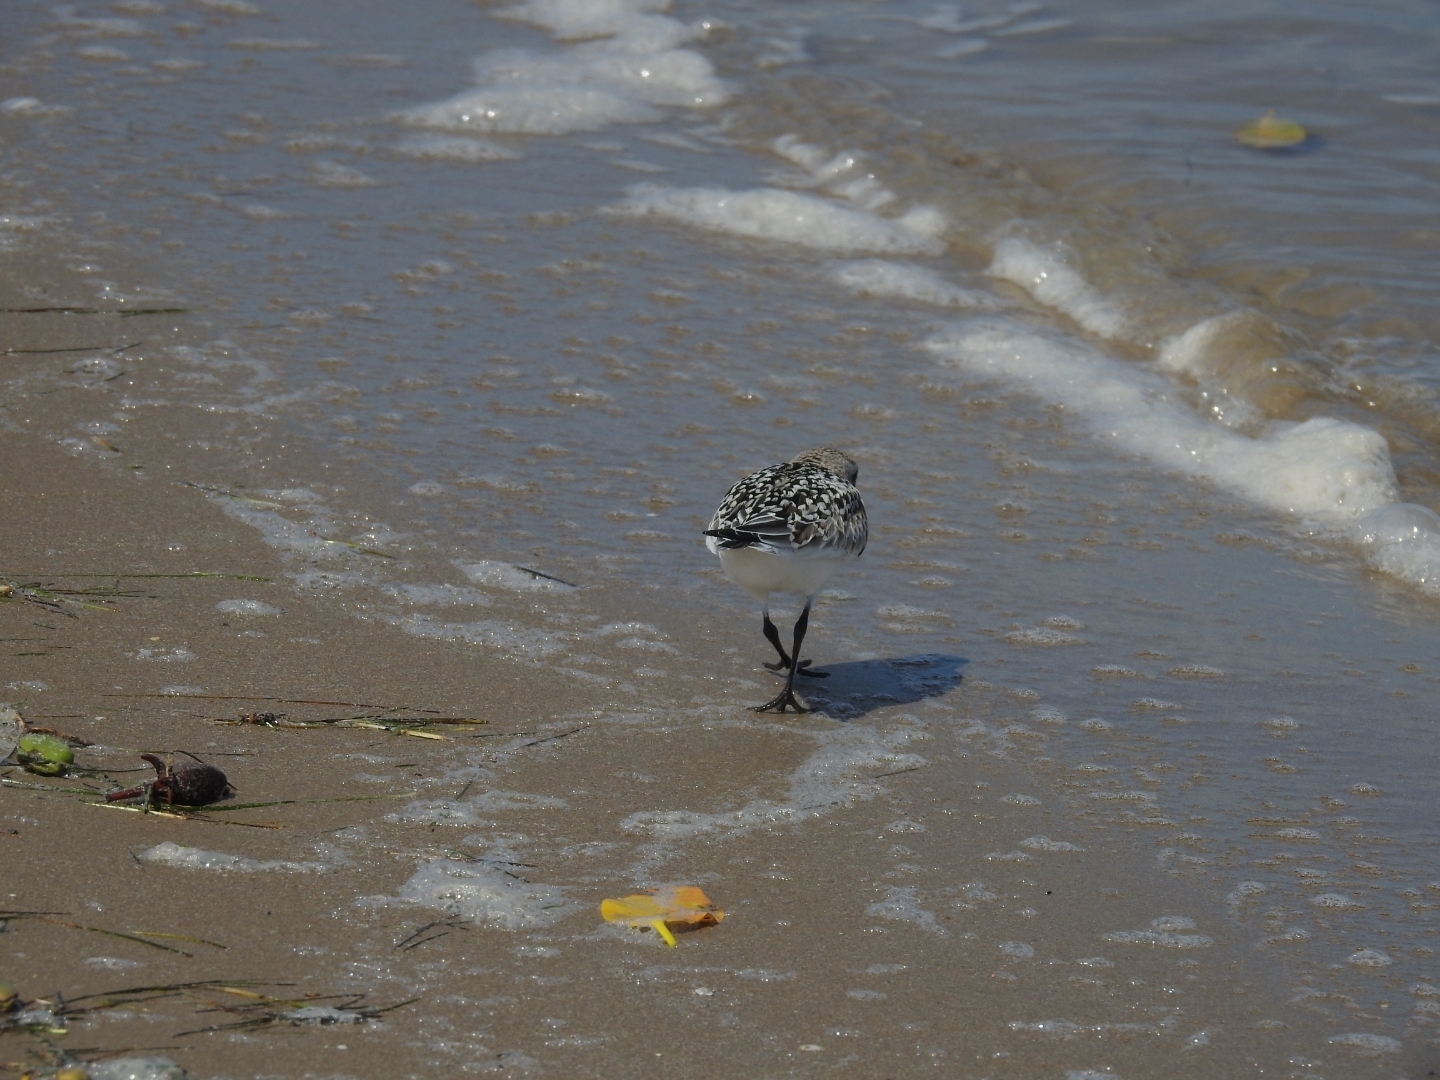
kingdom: Animalia
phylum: Chordata
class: Aves
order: Charadriiformes
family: Scolopacidae
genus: Calidris
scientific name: Calidris alba
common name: Sanderling
